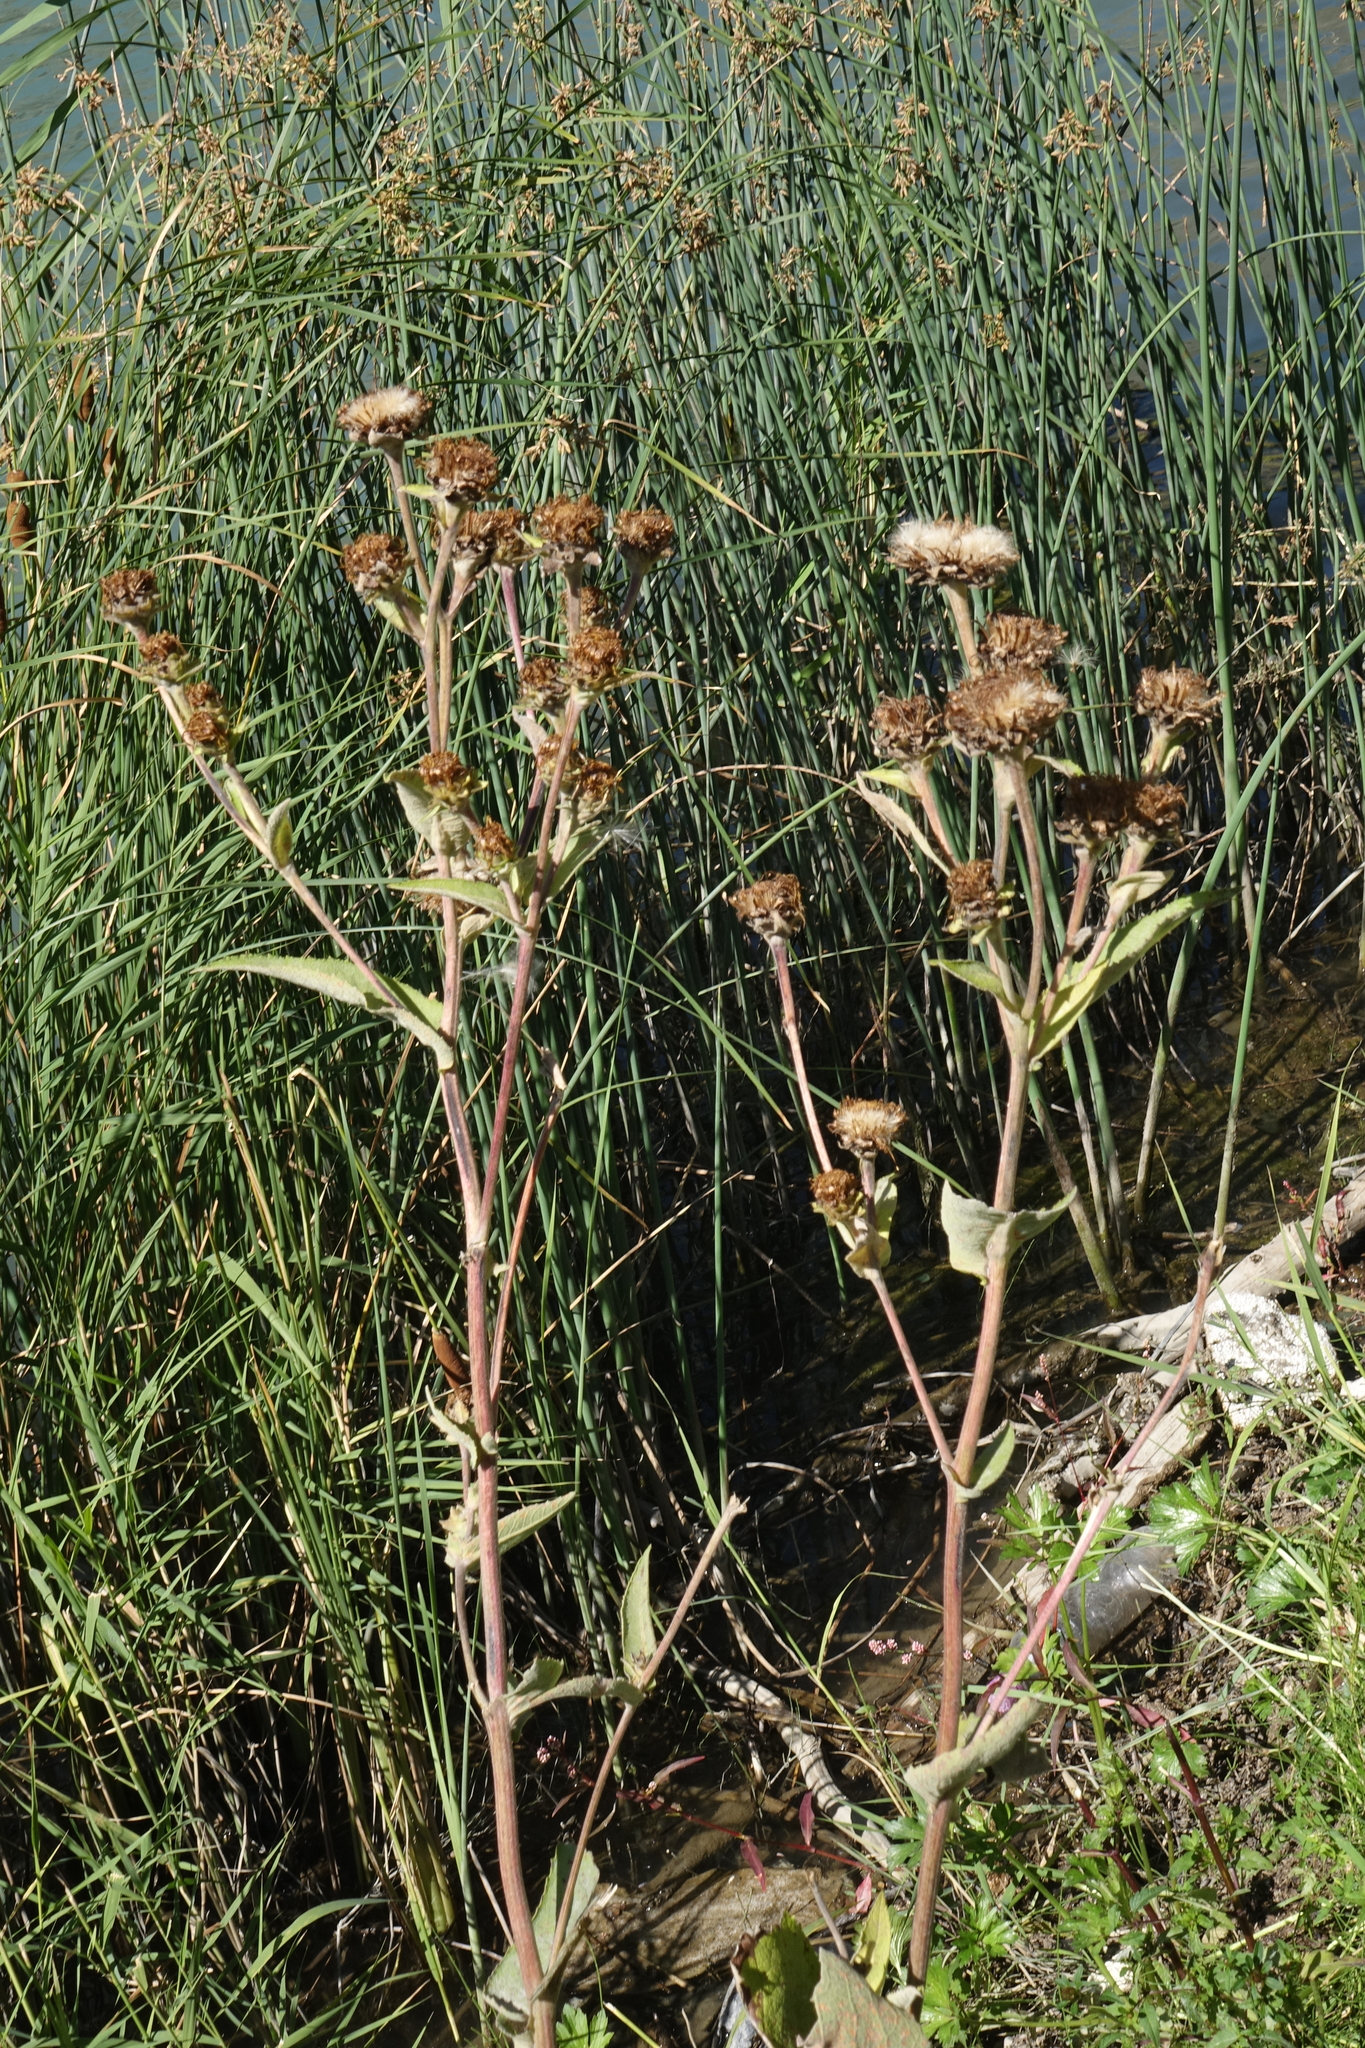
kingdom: Plantae
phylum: Tracheophyta
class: Magnoliopsida
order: Asterales
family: Asteraceae
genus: Inula
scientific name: Inula helenium
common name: Elecampane
